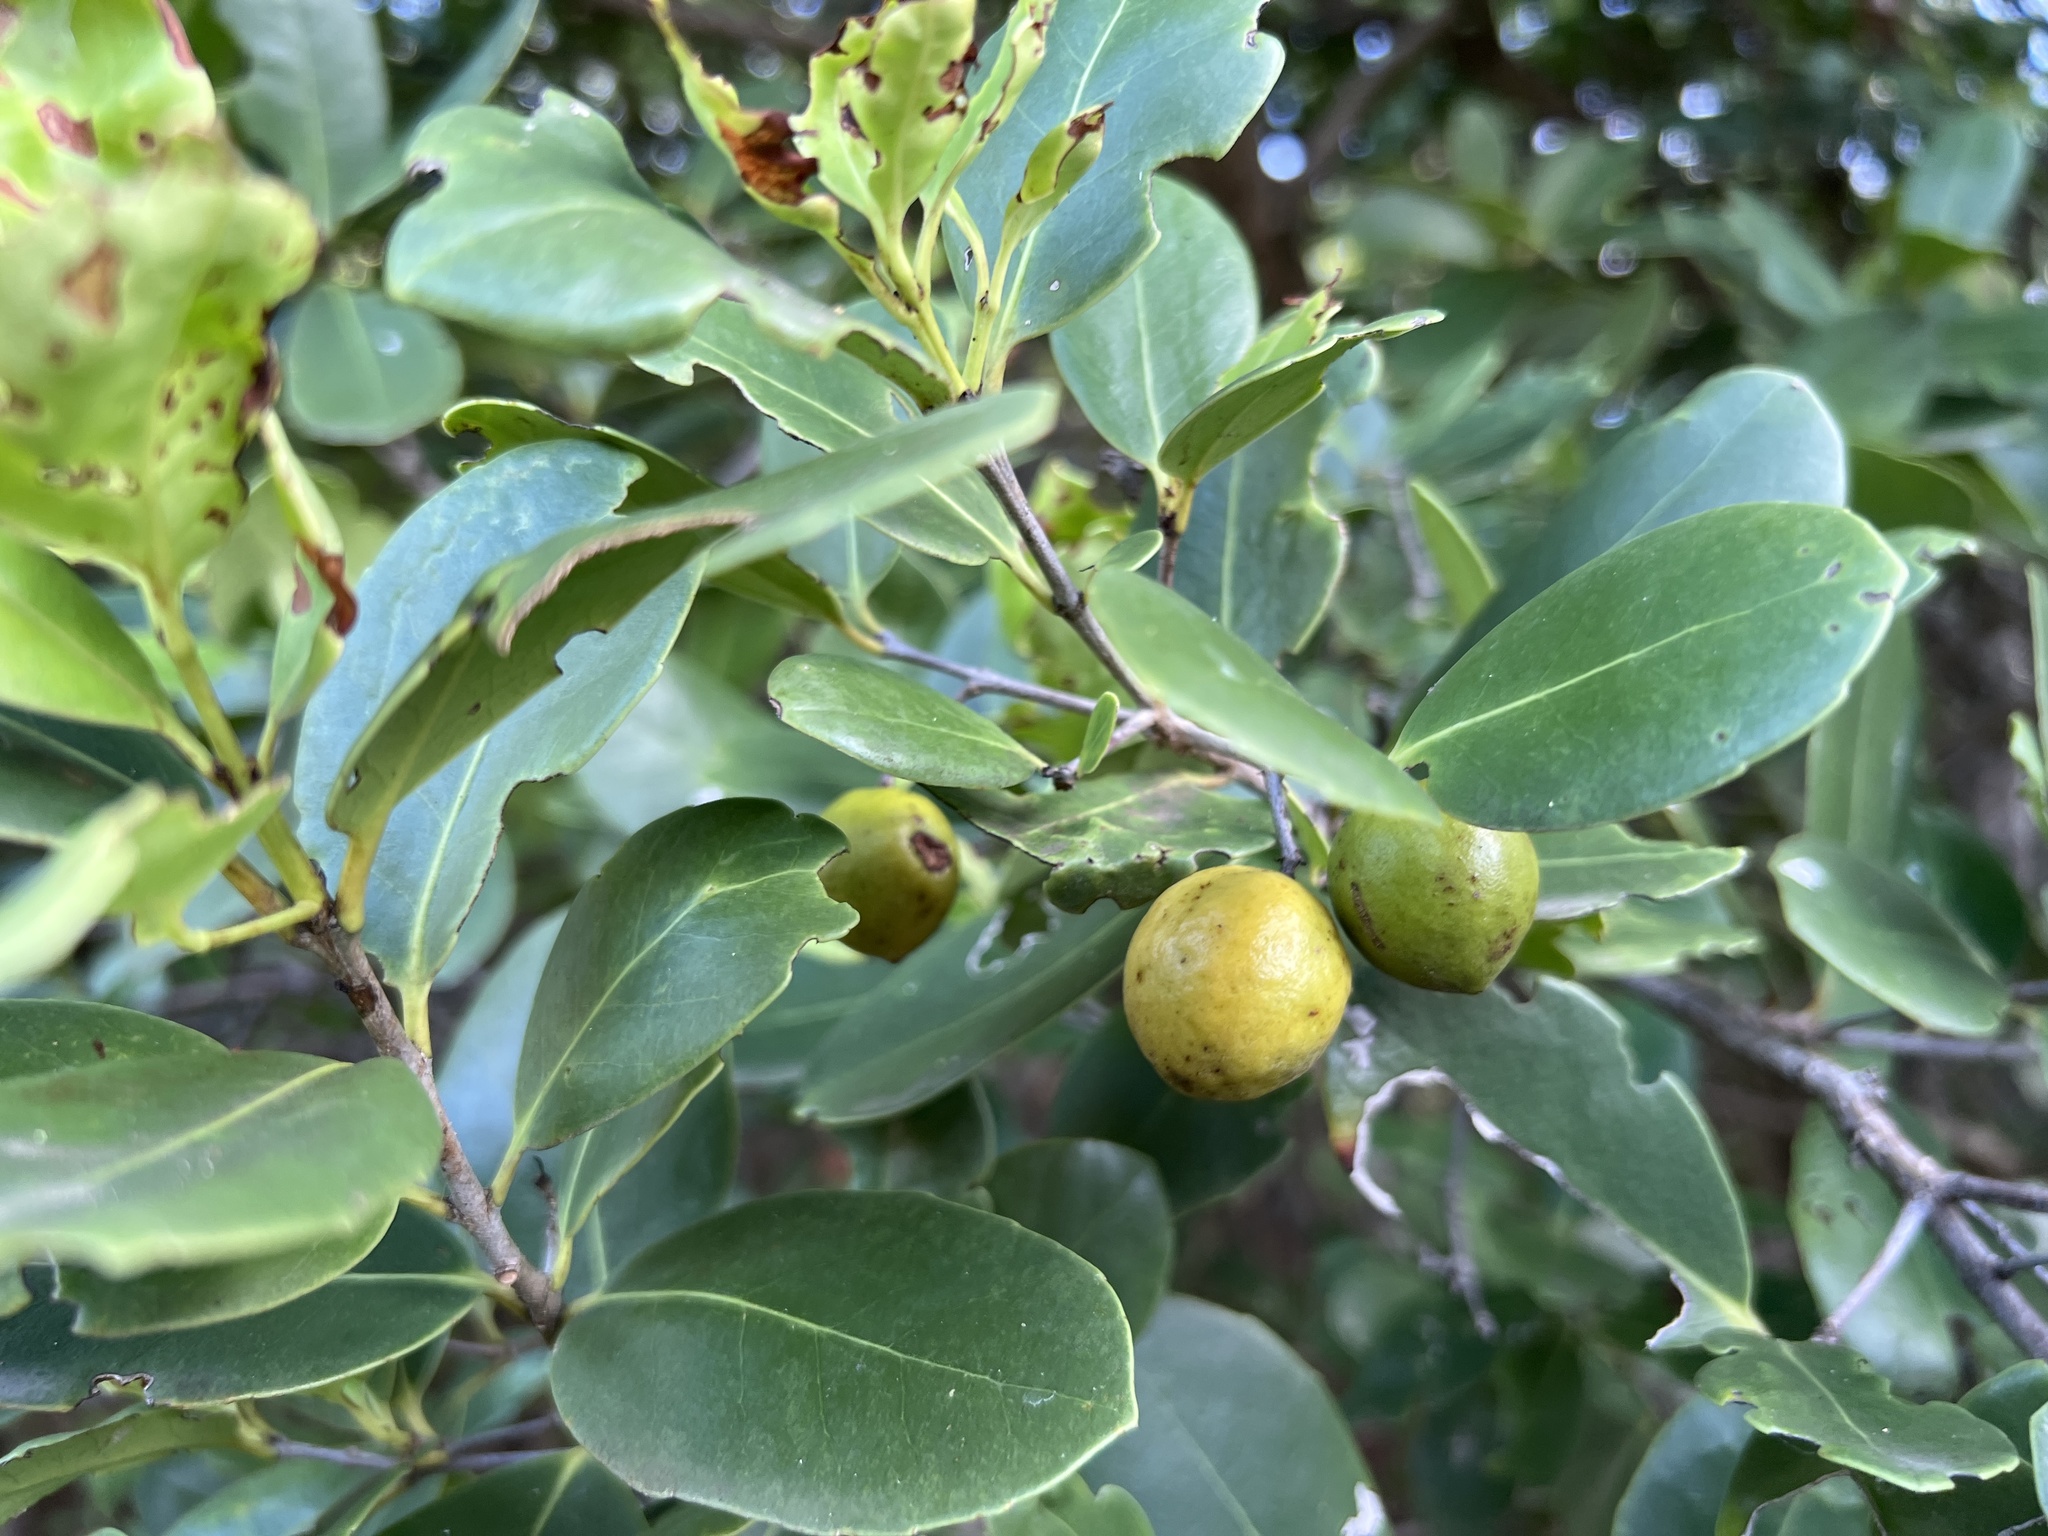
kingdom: Plantae
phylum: Tracheophyta
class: Magnoliopsida
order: Celastrales
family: Celastraceae
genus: Elaeodendron
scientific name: Elaeodendron xylocarpum
